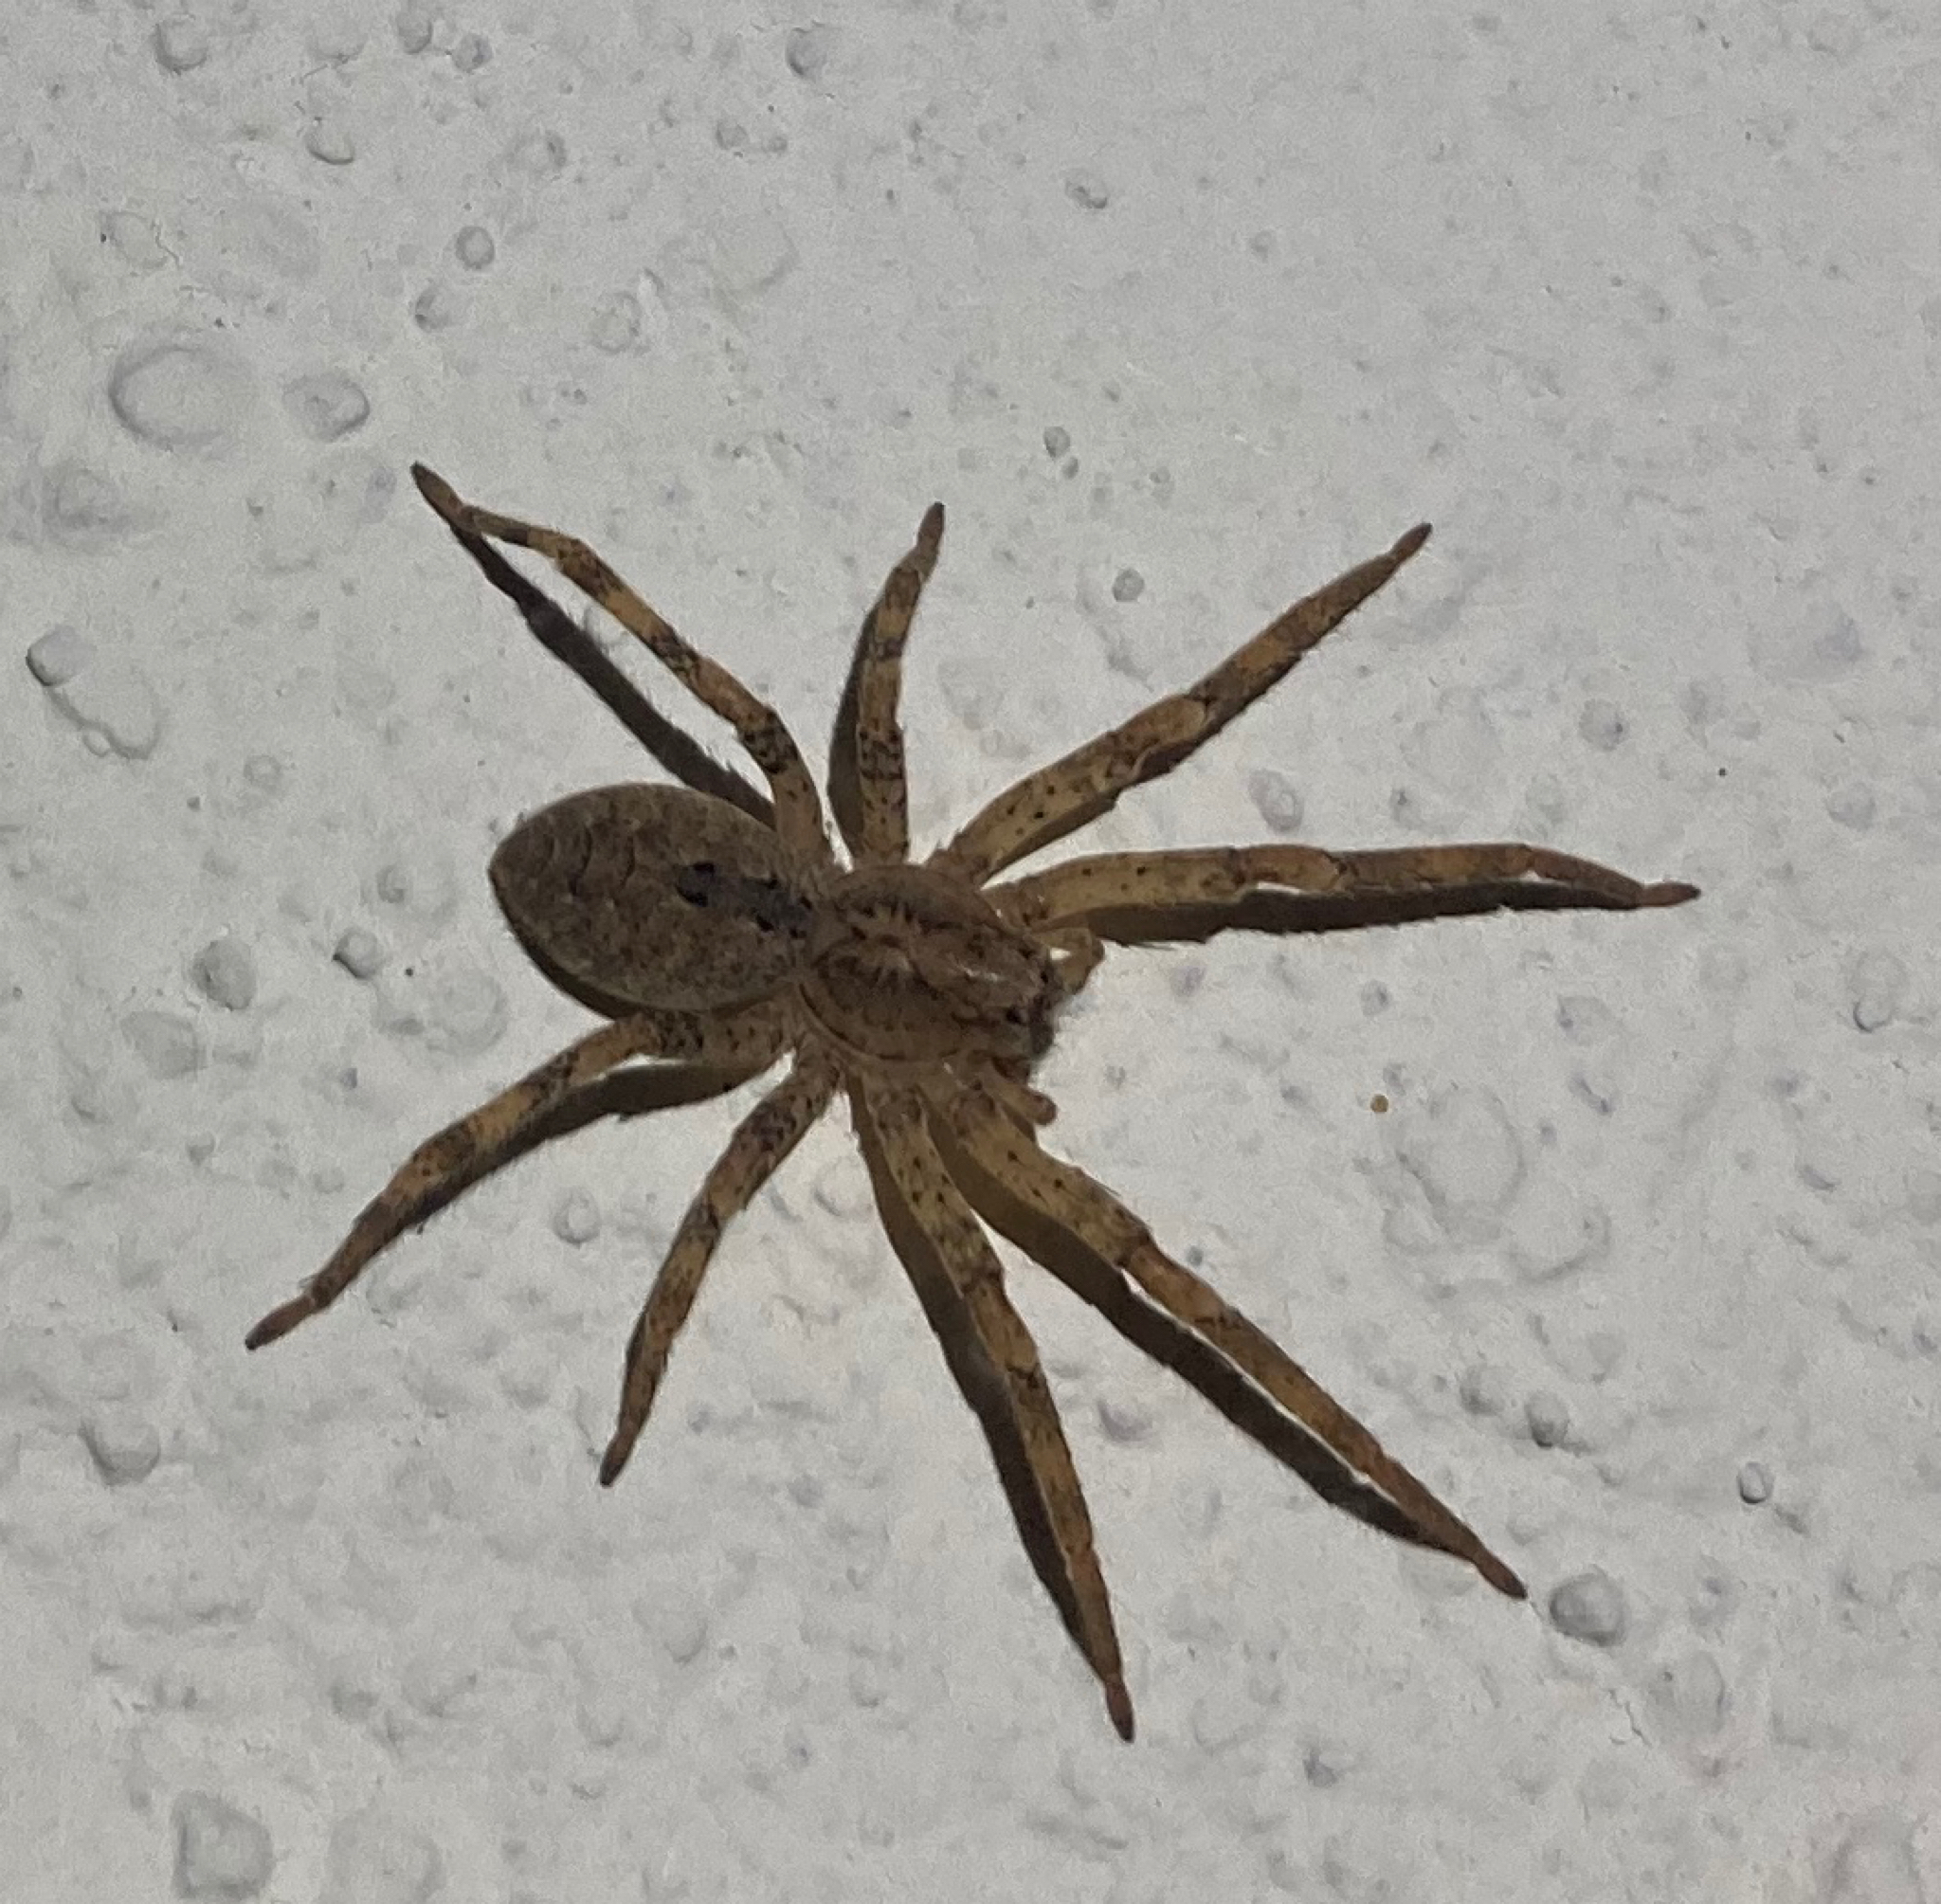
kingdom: Animalia
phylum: Arthropoda
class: Arachnida
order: Araneae
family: Zoropsidae
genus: Zoropsis
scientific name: Zoropsis spinimana
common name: Zoropsid spider
